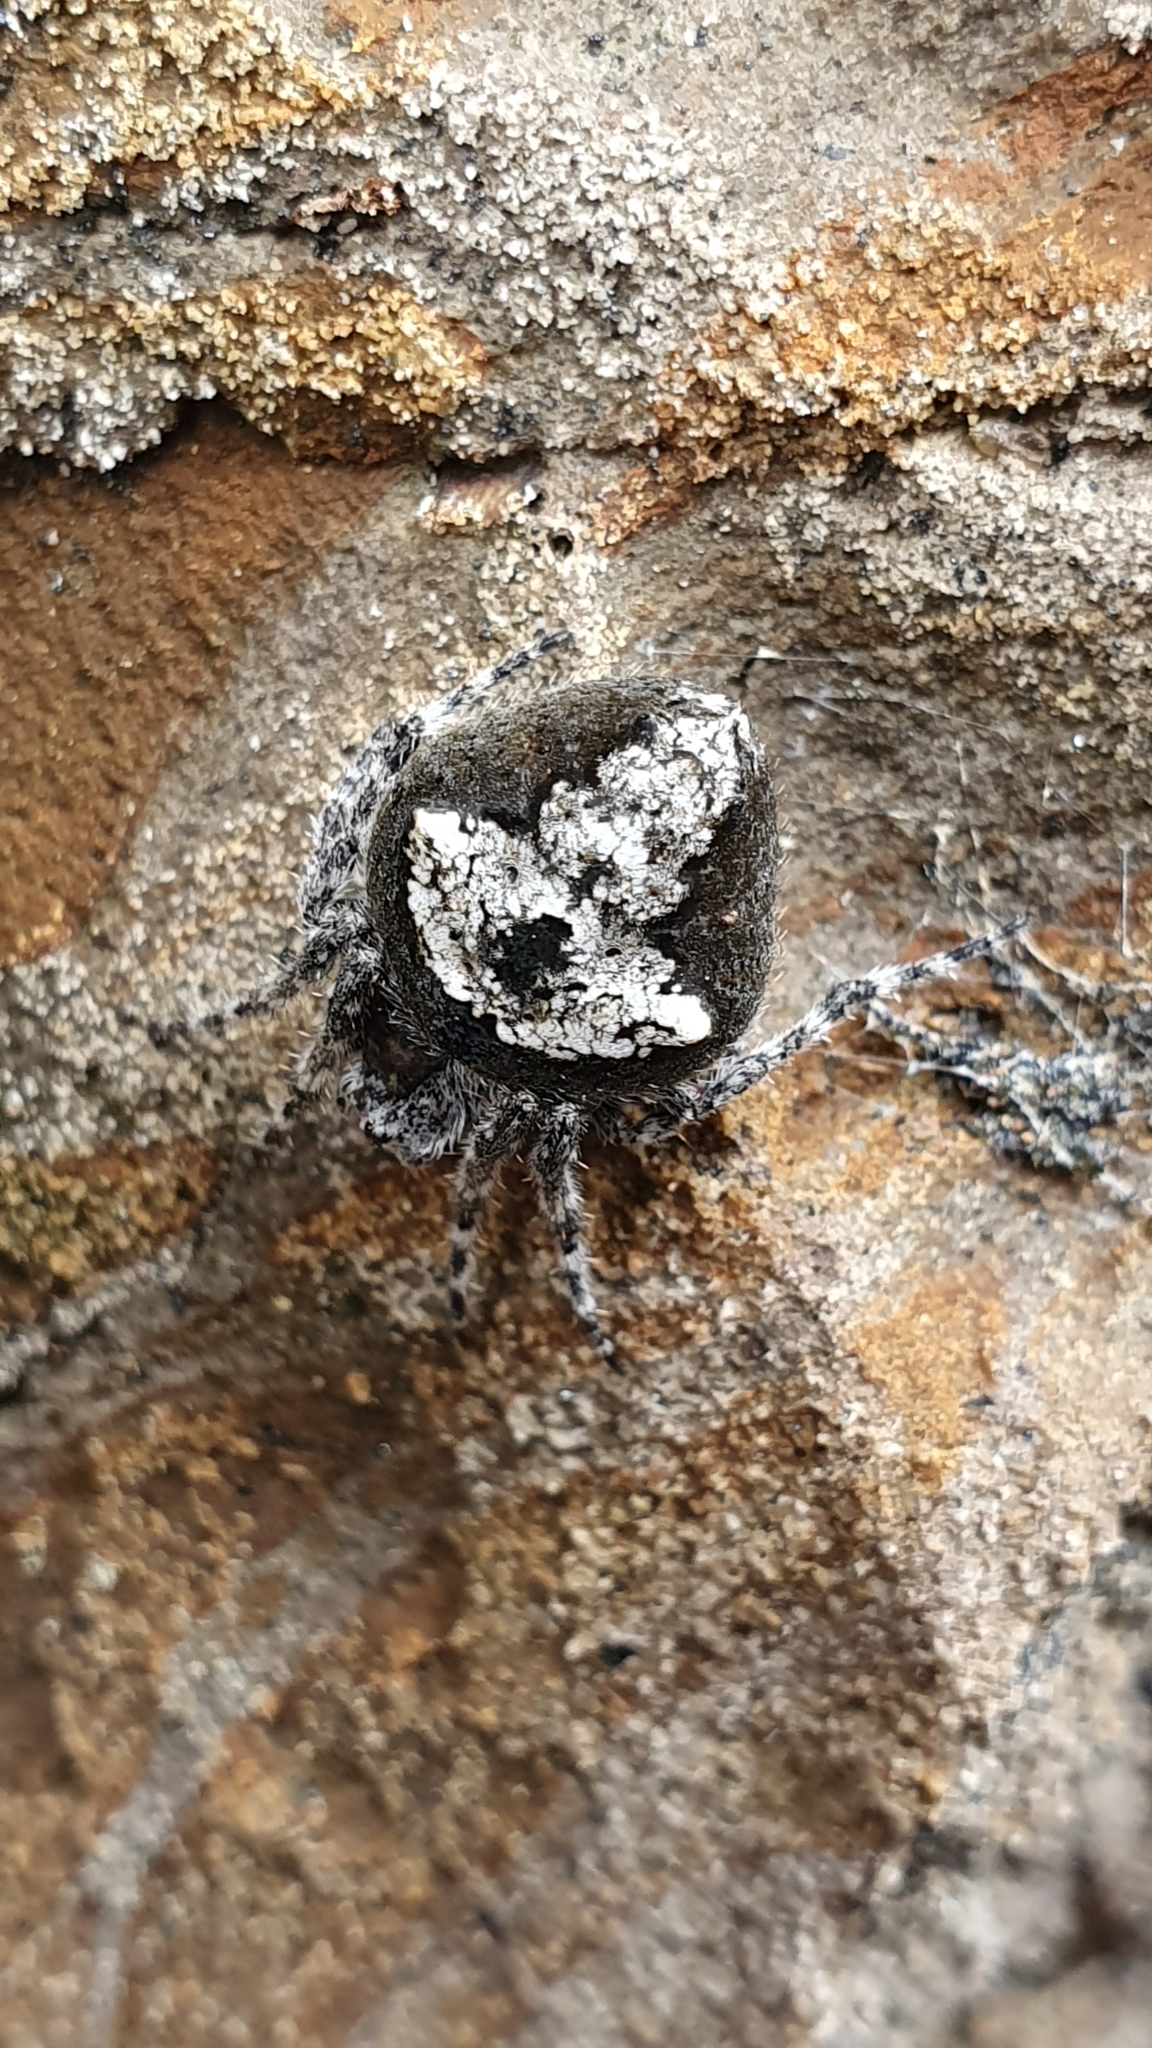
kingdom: Animalia
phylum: Arthropoda
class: Arachnida
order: Araneae
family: Araneidae
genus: Eriophora
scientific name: Eriophora pustulosa
